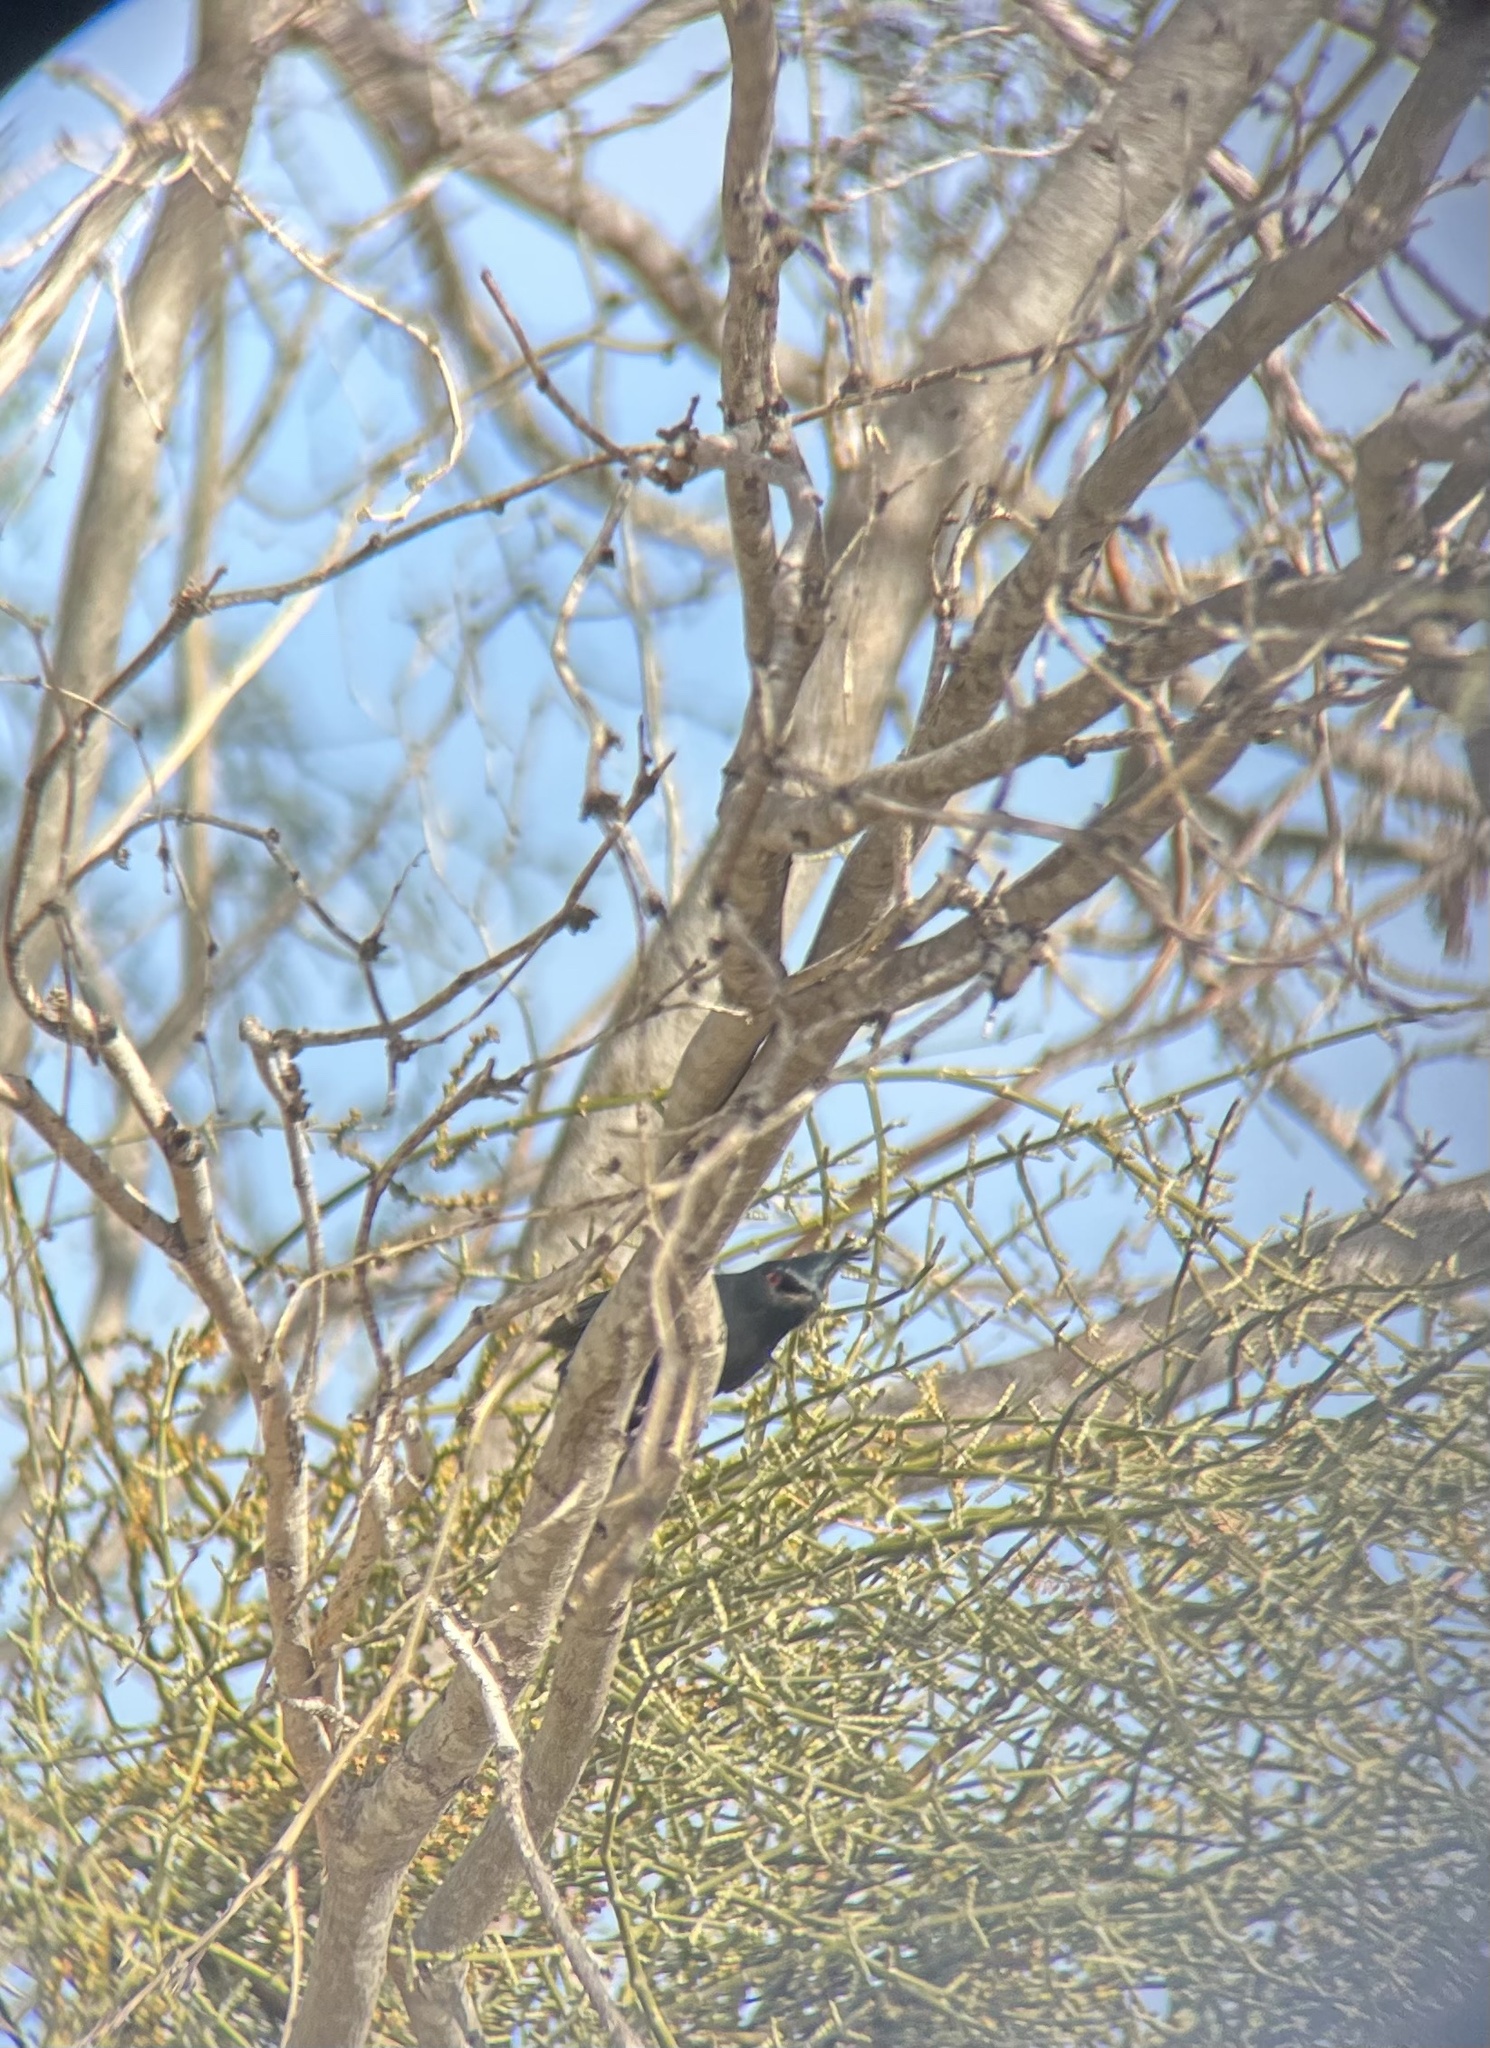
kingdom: Animalia
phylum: Chordata
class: Aves
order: Passeriformes
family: Ptilogonatidae
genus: Phainopepla
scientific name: Phainopepla nitens
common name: Phainopepla
